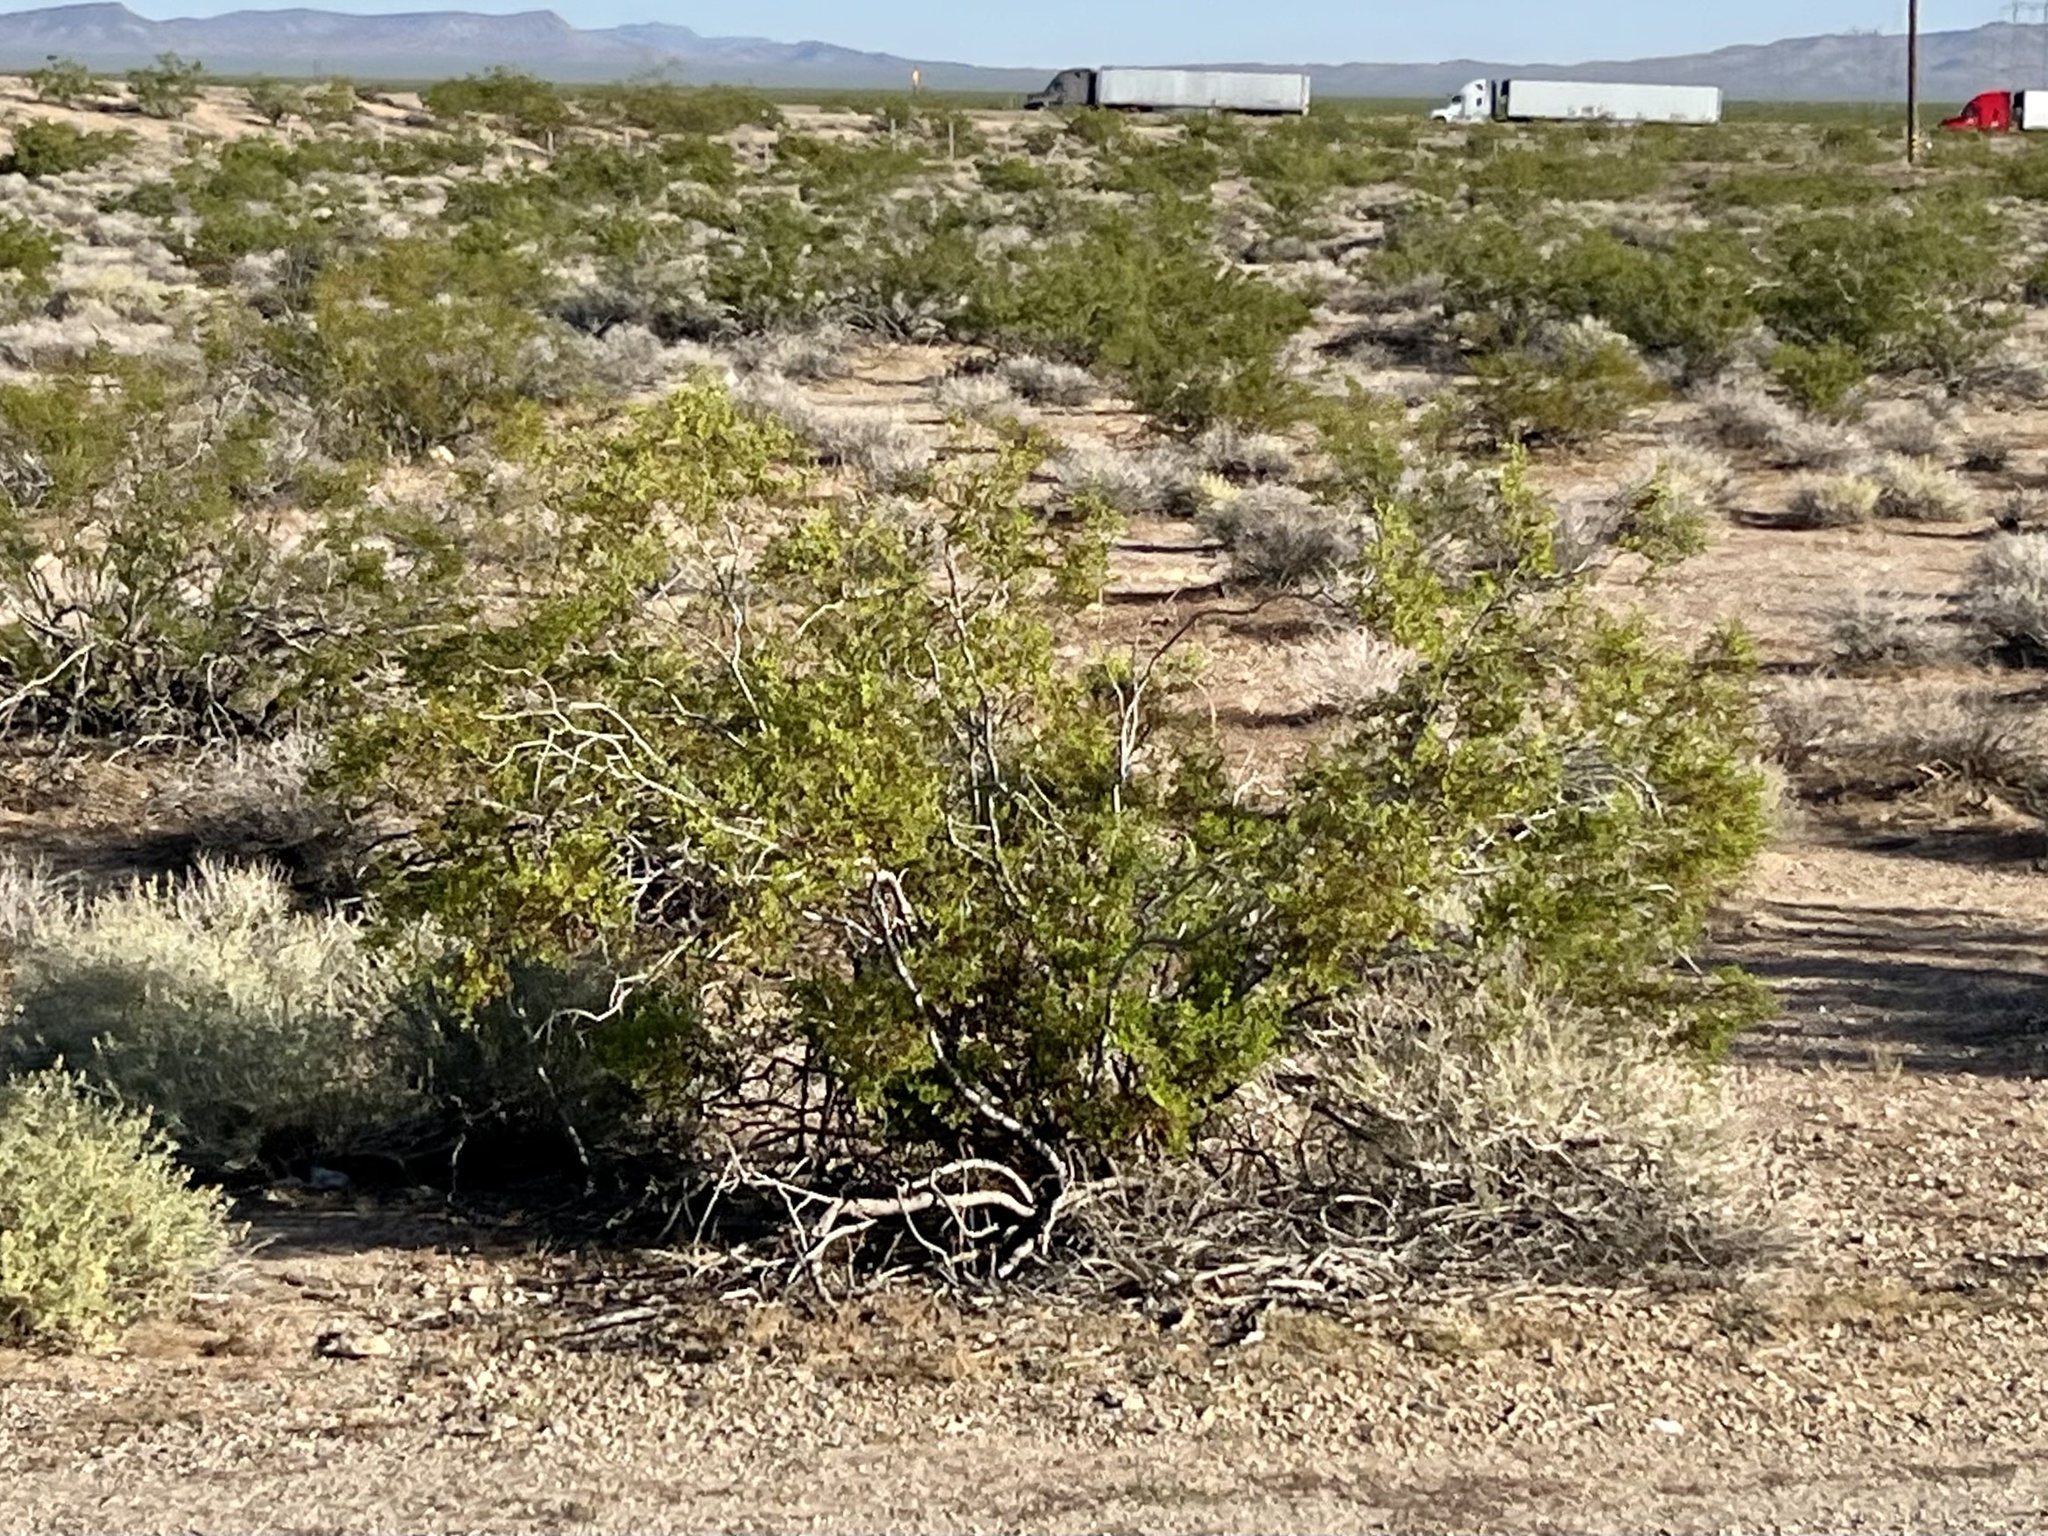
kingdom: Plantae
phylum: Tracheophyta
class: Magnoliopsida
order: Zygophyllales
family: Zygophyllaceae
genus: Larrea
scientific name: Larrea tridentata
